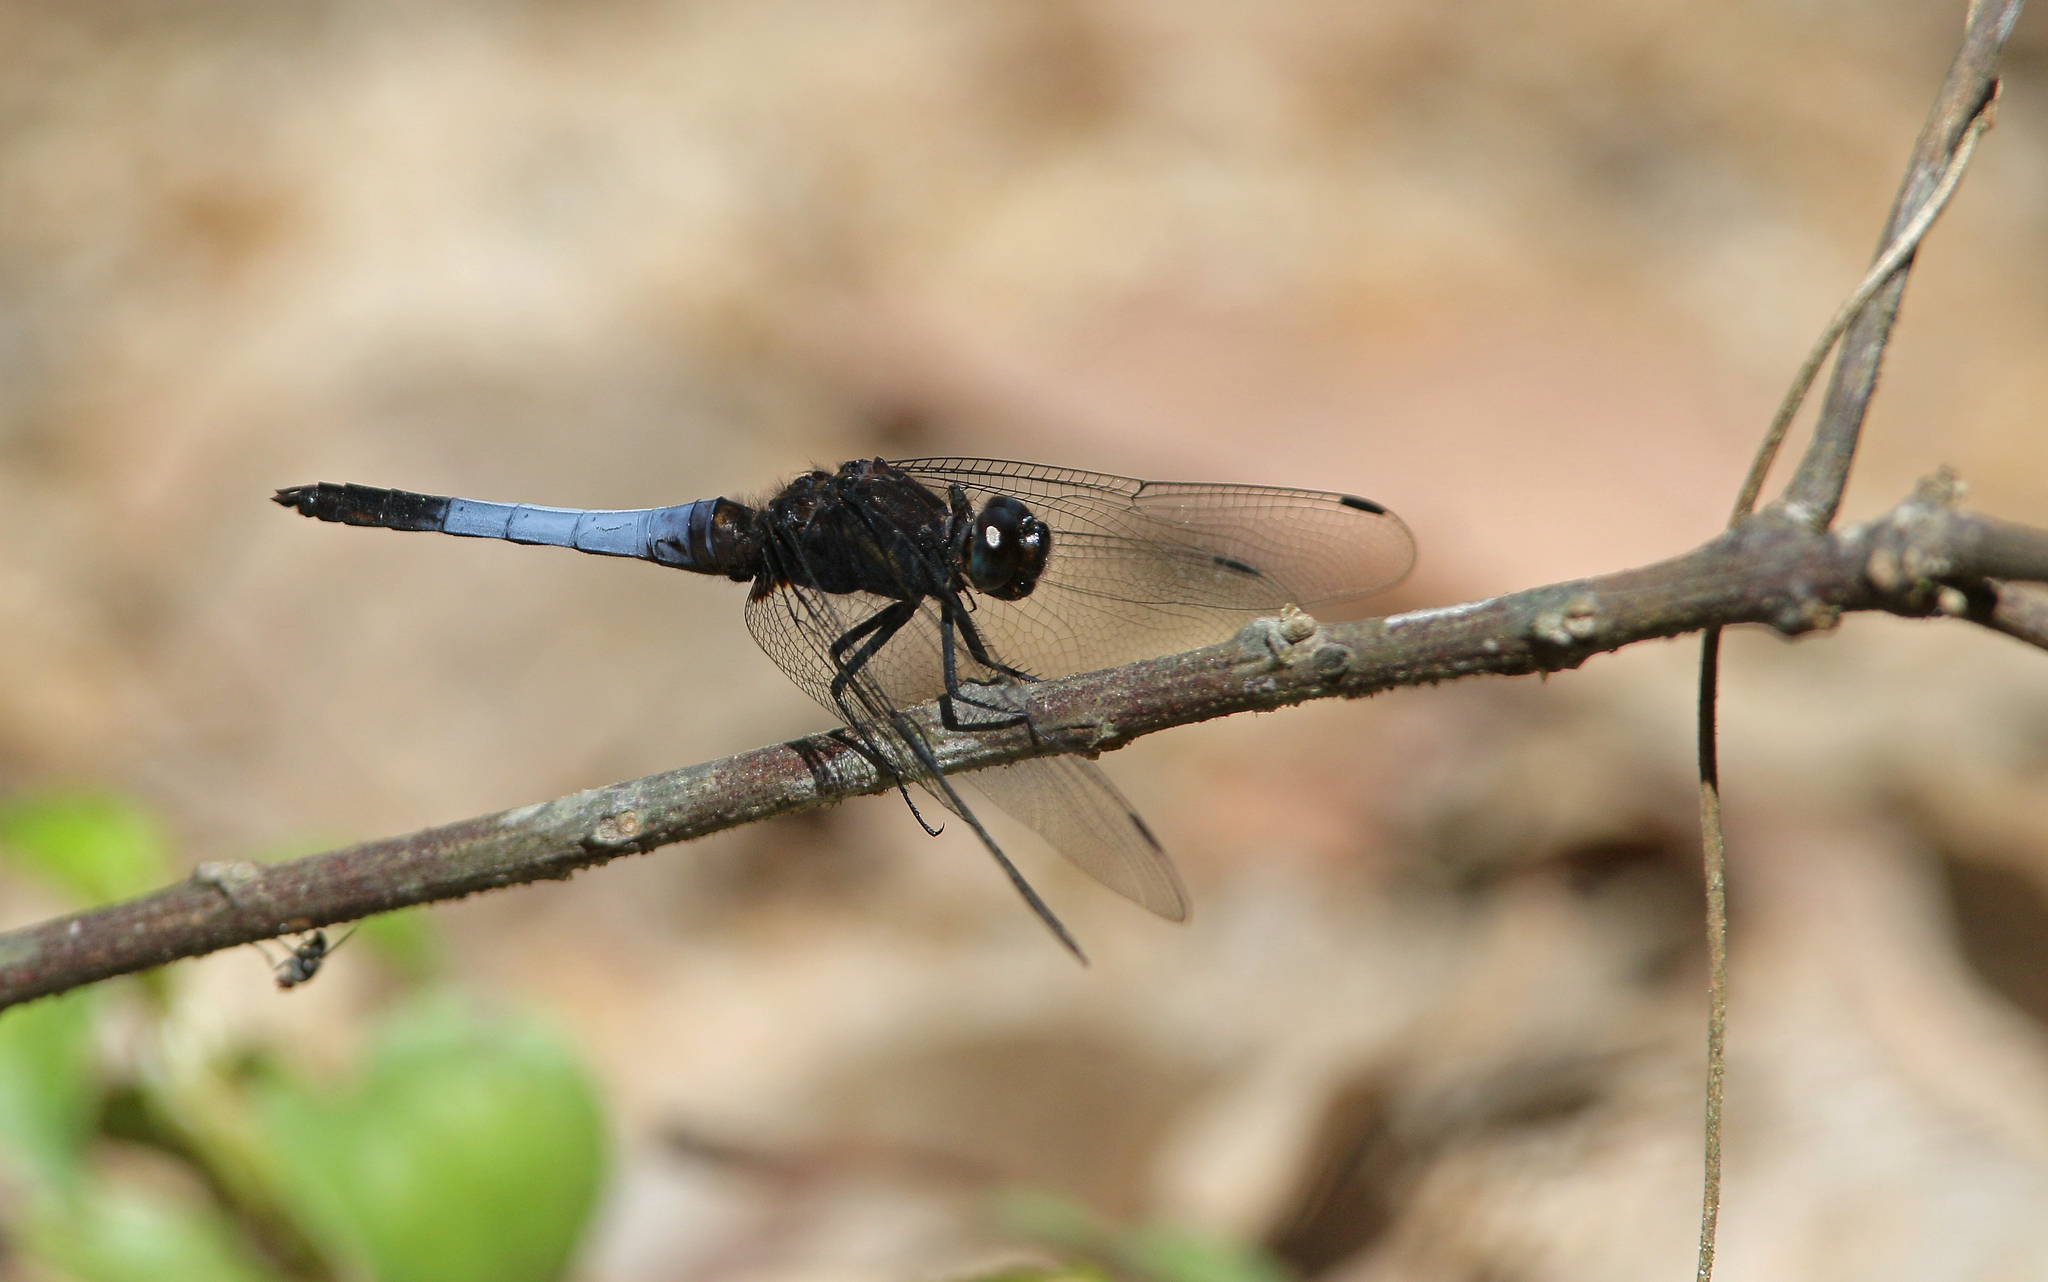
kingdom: Animalia
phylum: Arthropoda
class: Insecta
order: Odonata
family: Libellulidae
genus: Orthetrum
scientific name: Orthetrum triangulare
